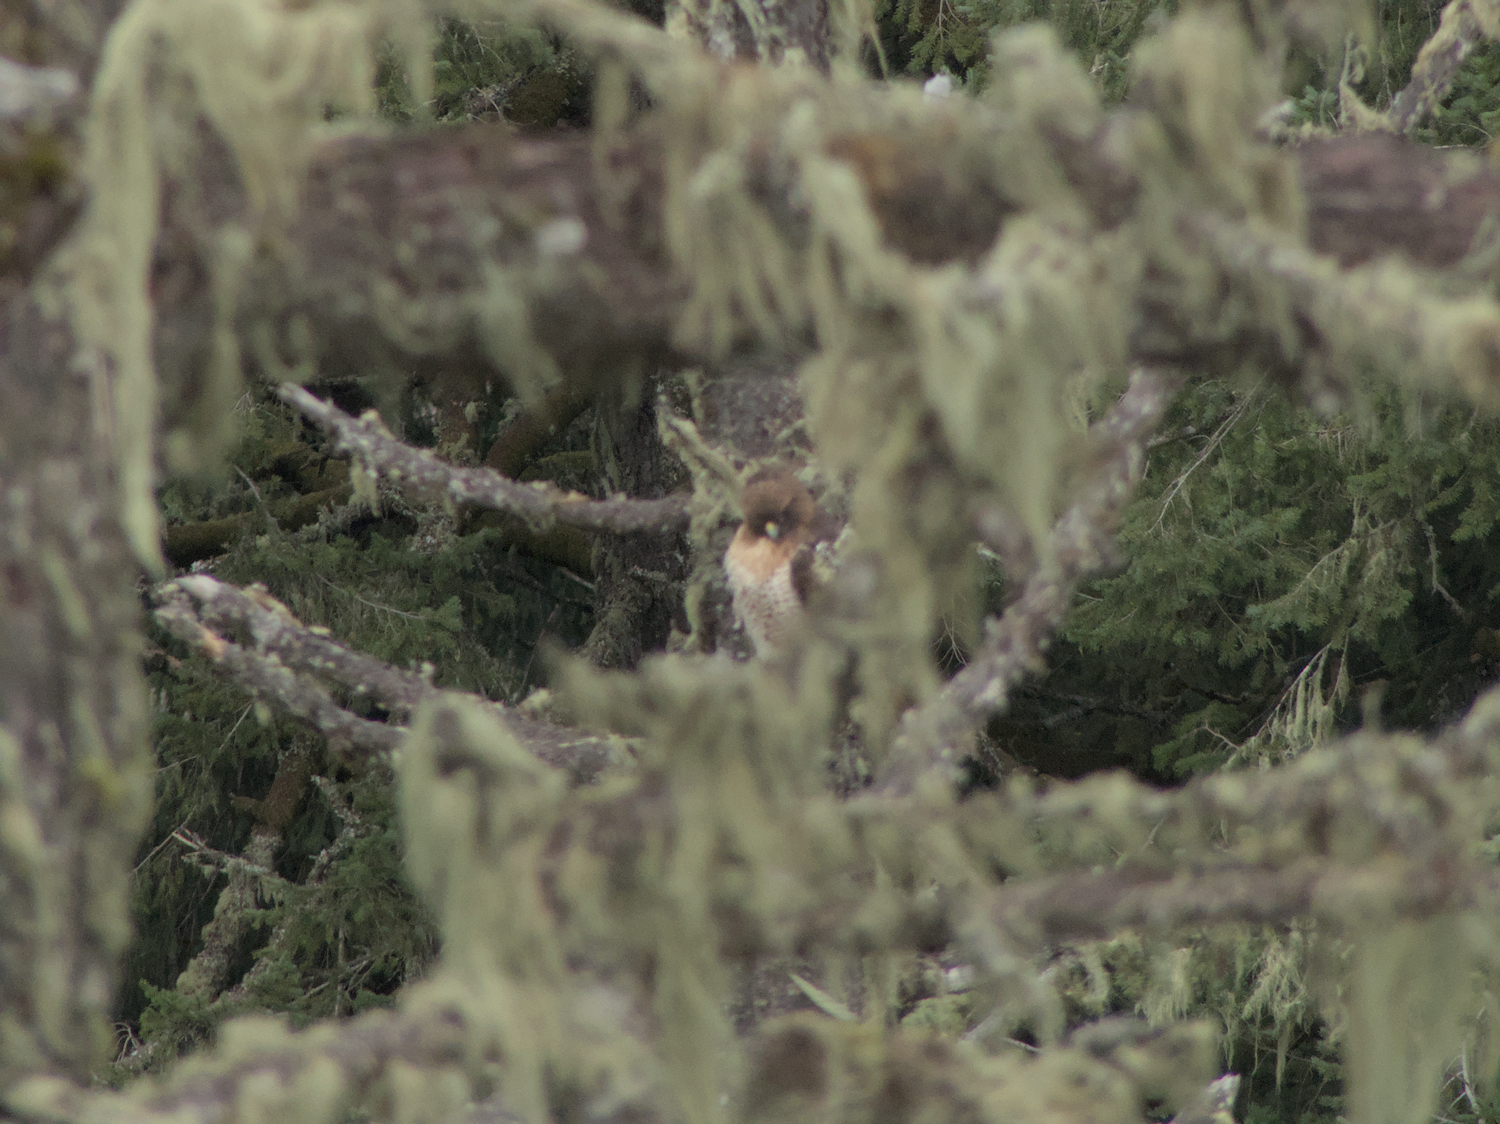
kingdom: Animalia
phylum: Chordata
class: Aves
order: Accipitriformes
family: Accipitridae
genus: Buteo
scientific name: Buteo jamaicensis
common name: Red-tailed hawk
